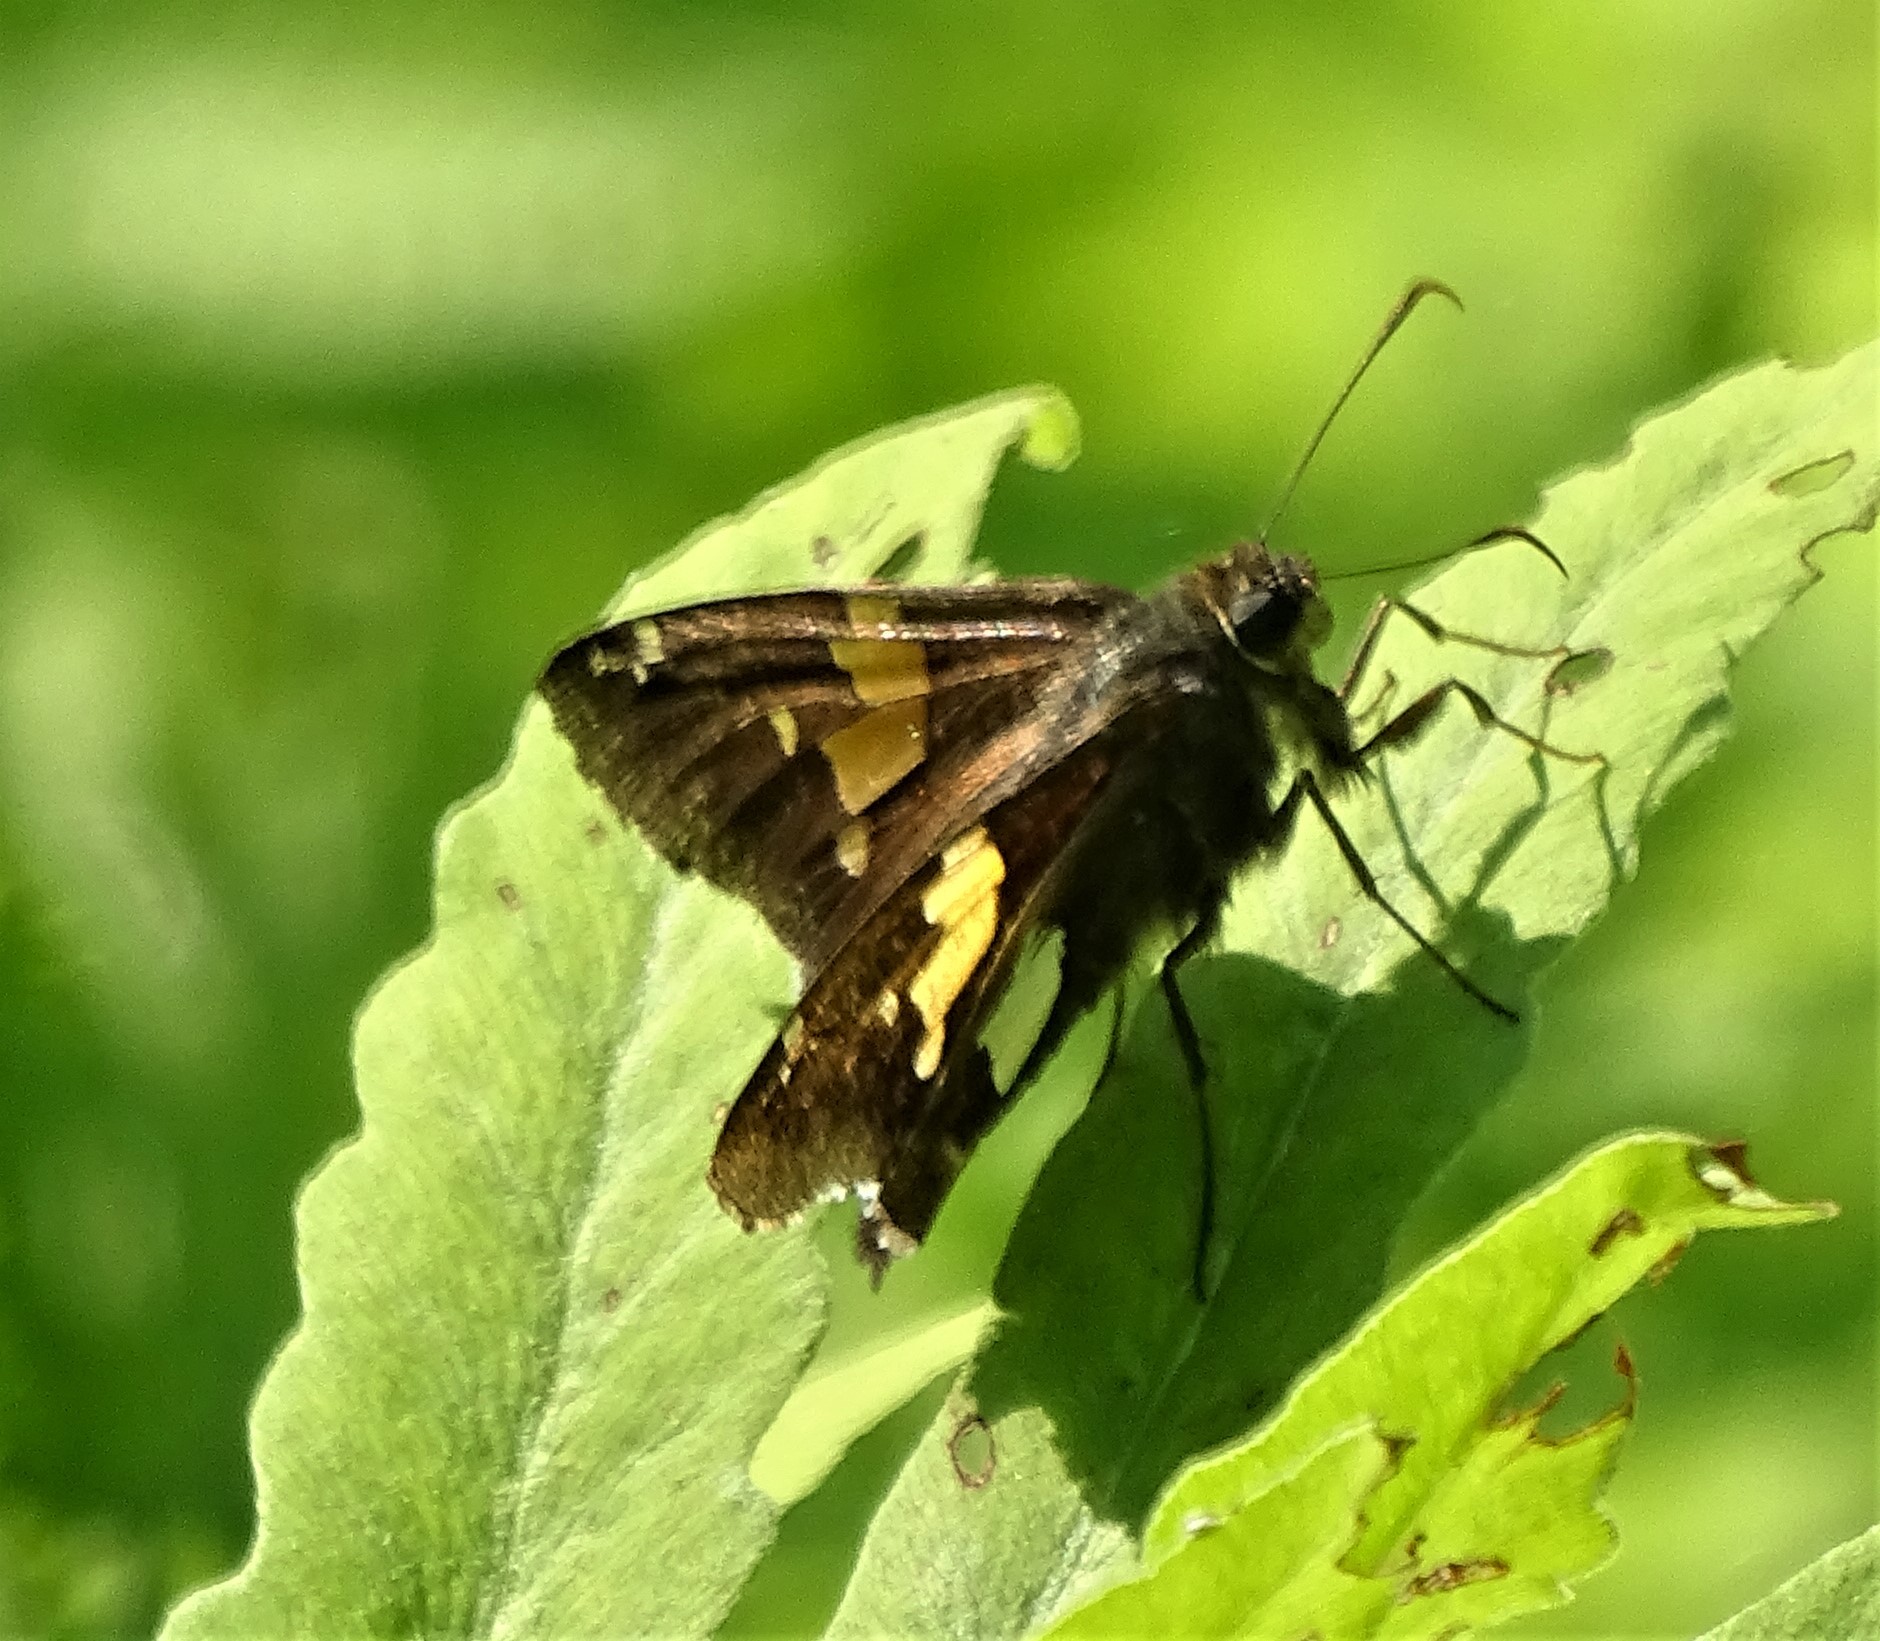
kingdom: Animalia
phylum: Arthropoda
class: Insecta
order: Lepidoptera
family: Hesperiidae
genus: Epargyreus
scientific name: Epargyreus clarus
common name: Silver-spotted skipper
